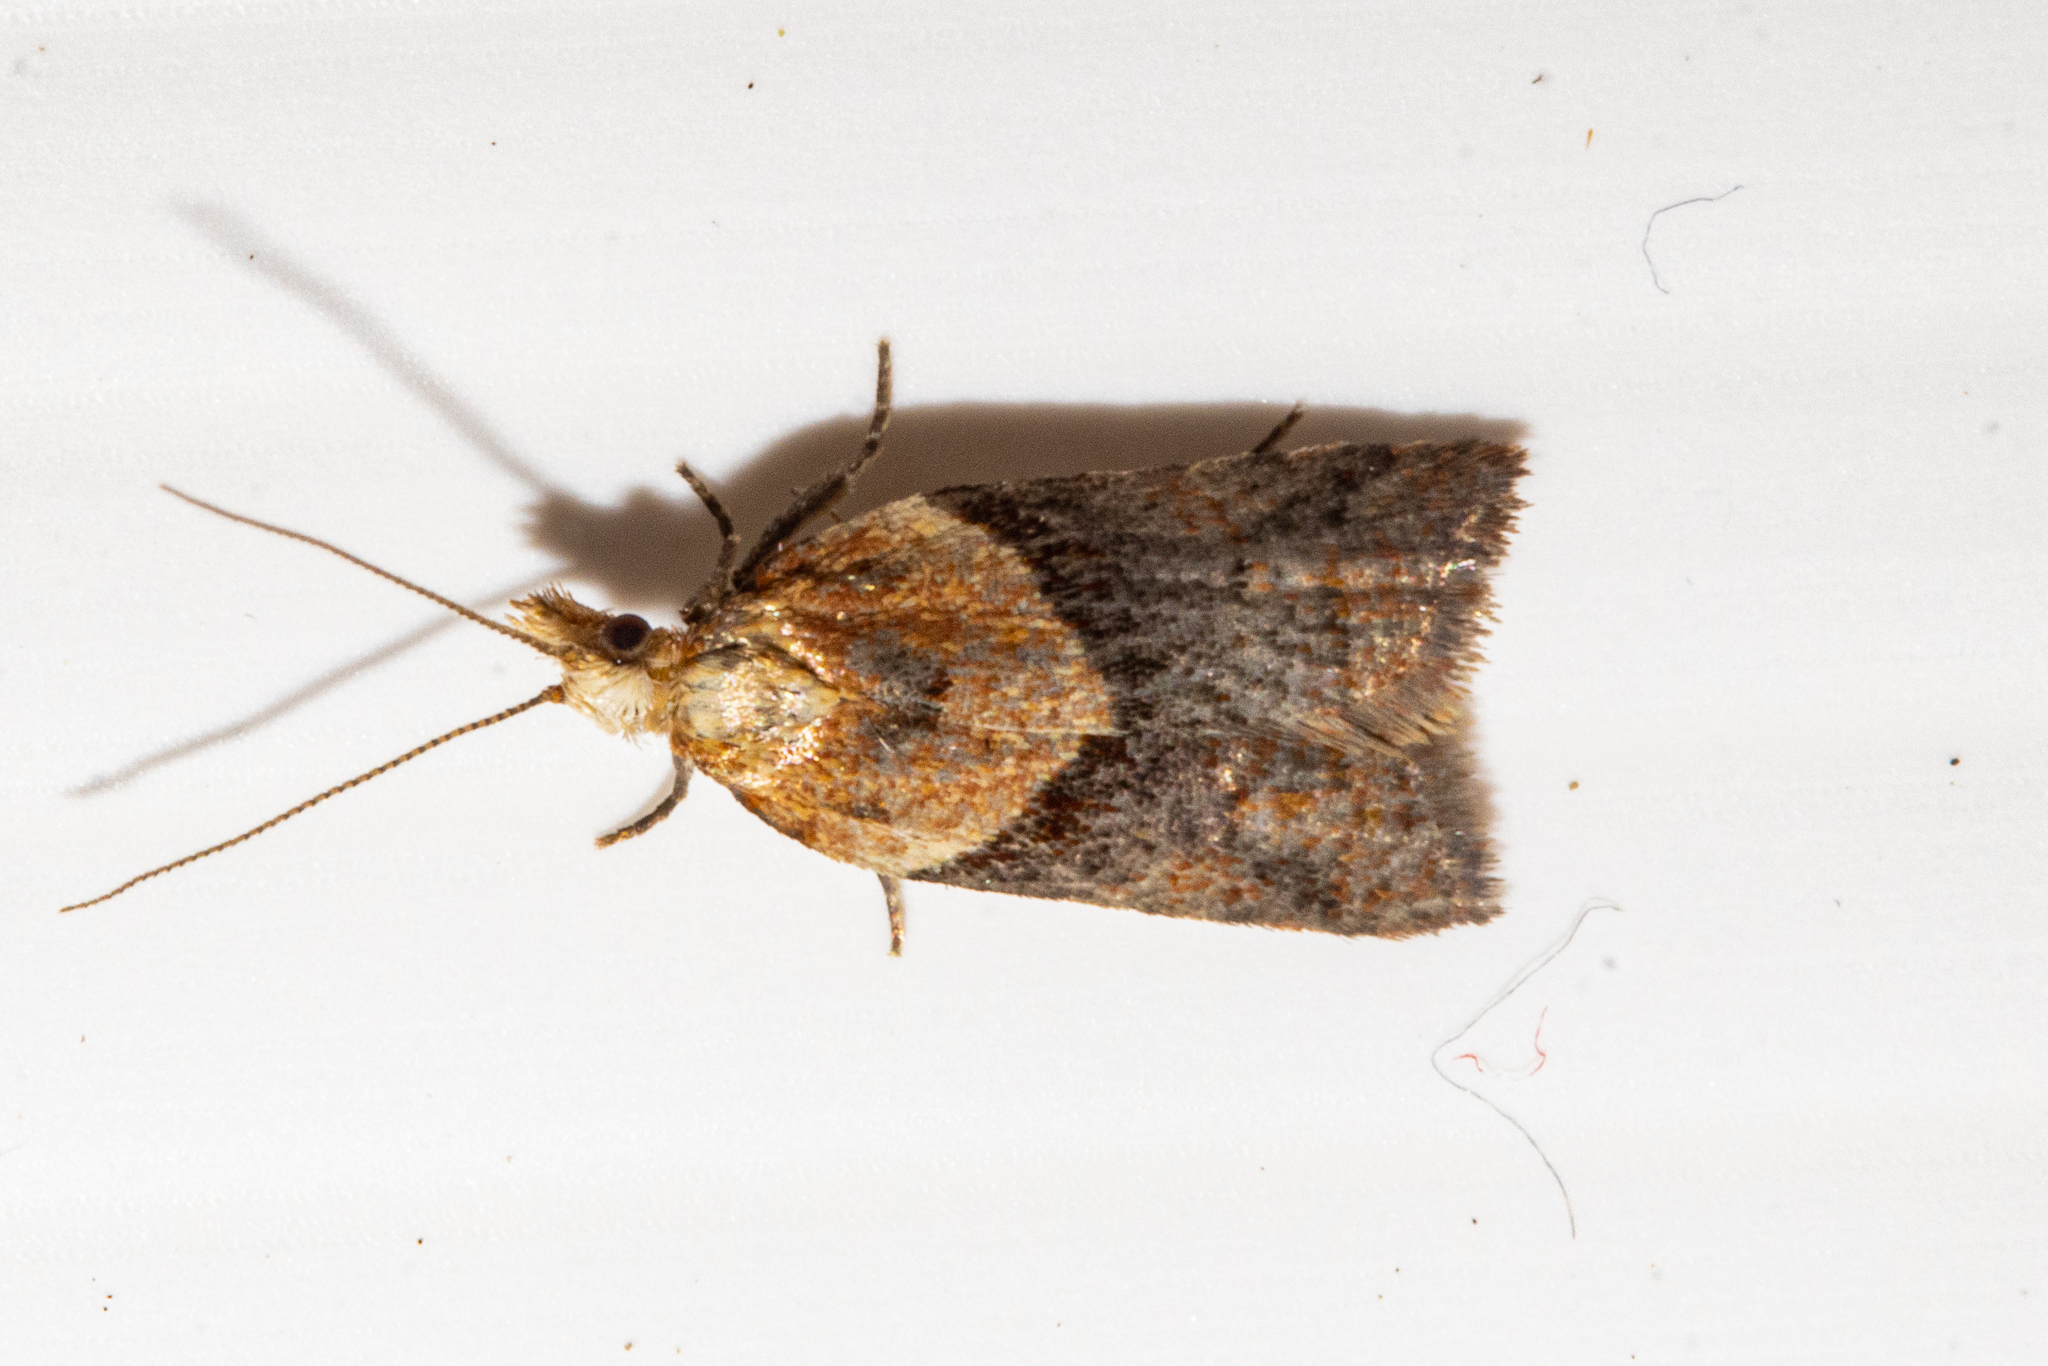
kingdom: Animalia
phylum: Arthropoda
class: Insecta
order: Lepidoptera
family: Tortricidae
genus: Epichorista
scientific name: Epichorista hemionana
